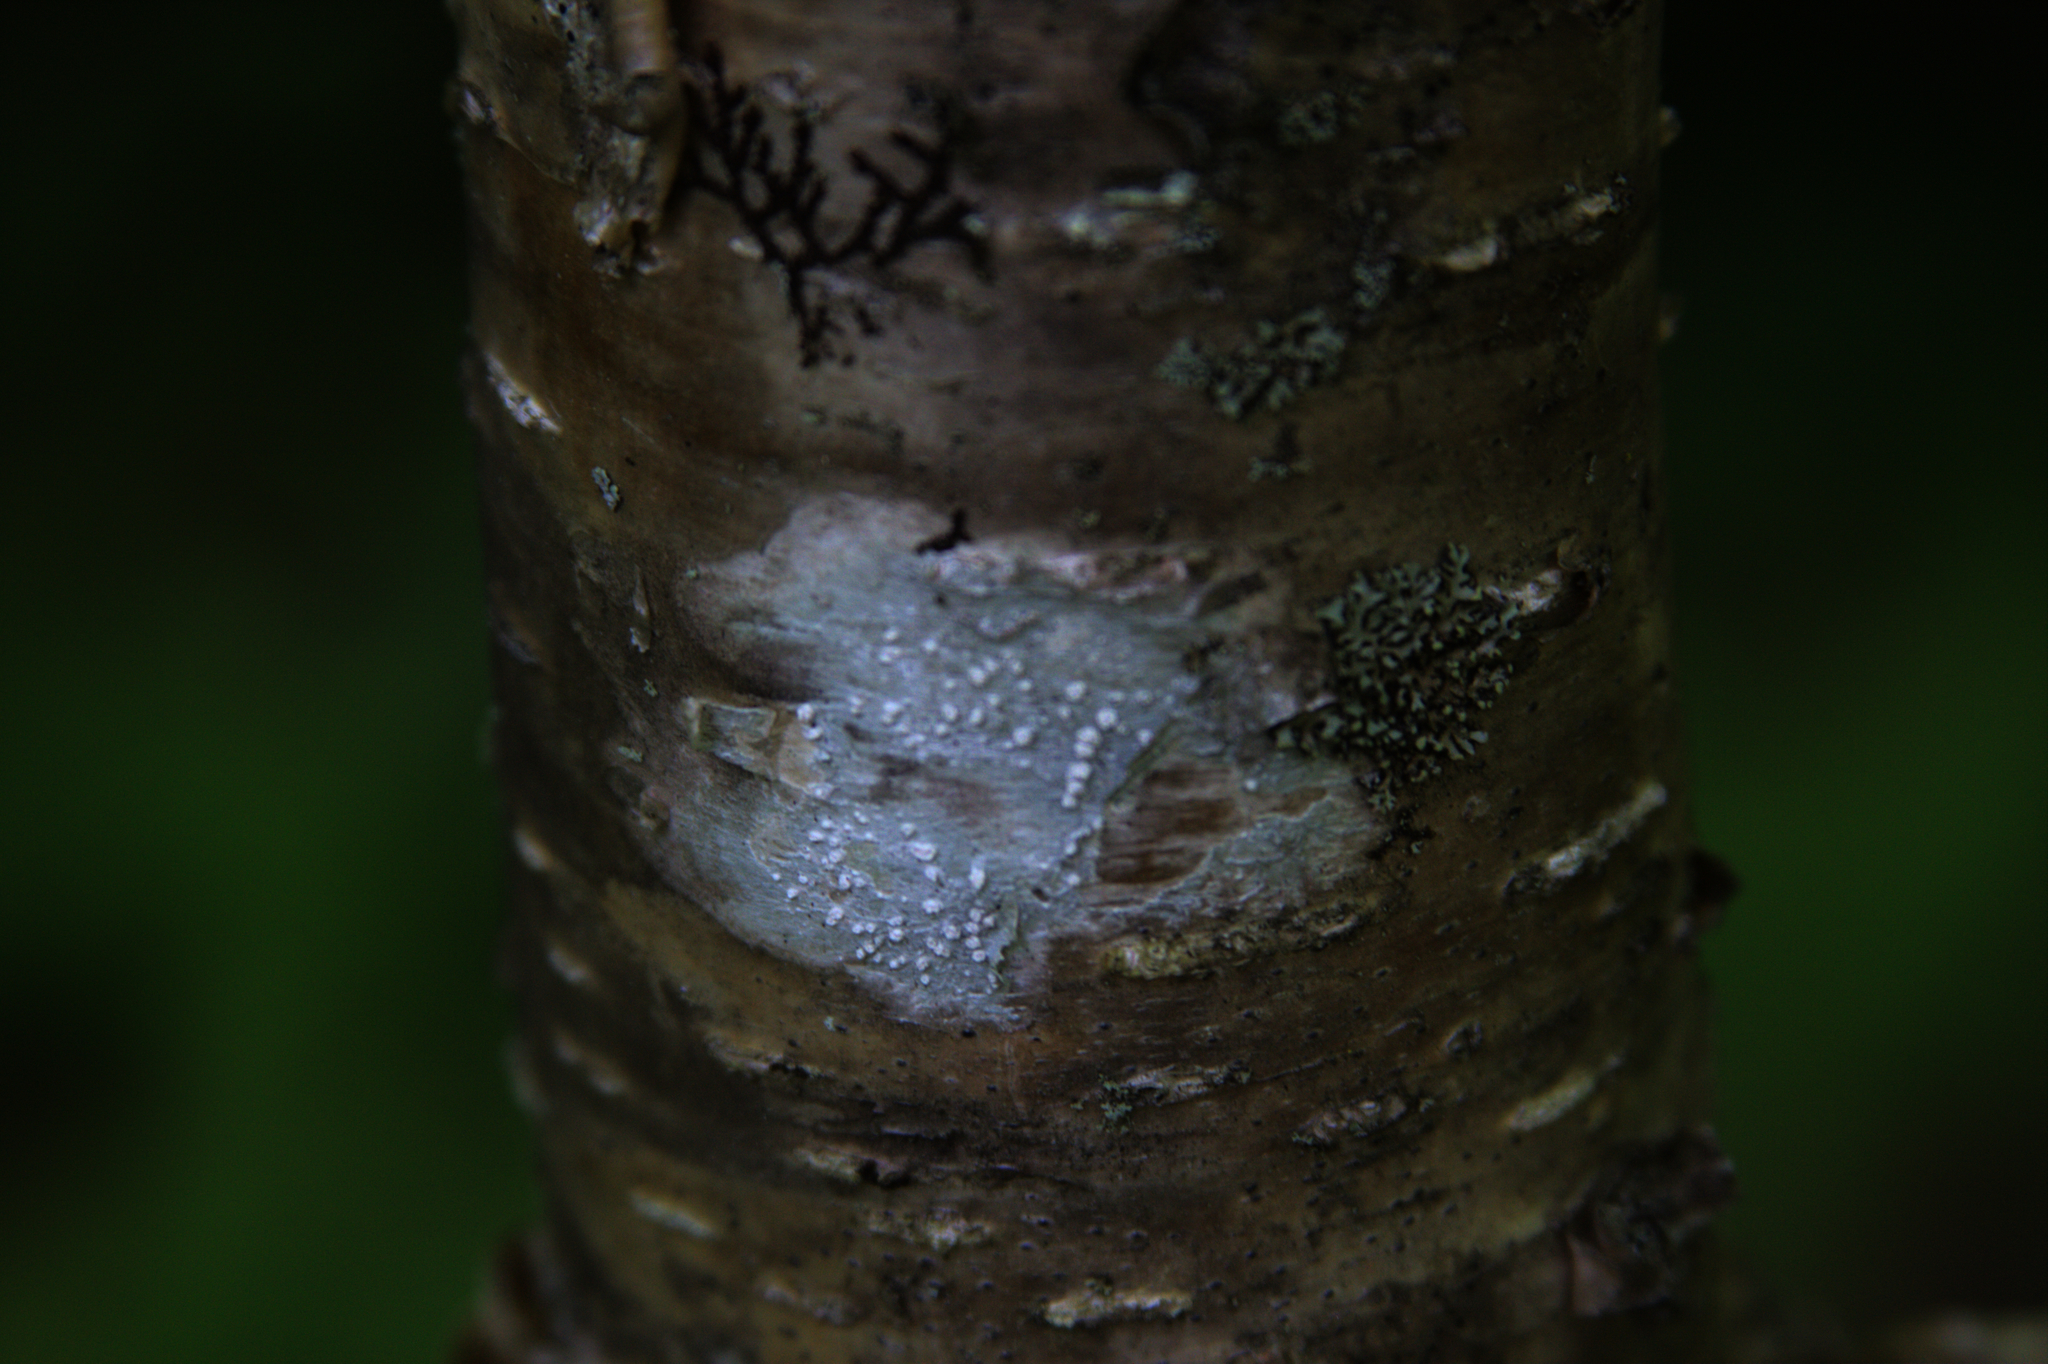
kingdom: Plantae
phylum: Tracheophyta
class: Magnoliopsida
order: Fagales
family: Betulaceae
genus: Betula
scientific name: Betula alleghaniensis
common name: Yellow birch
